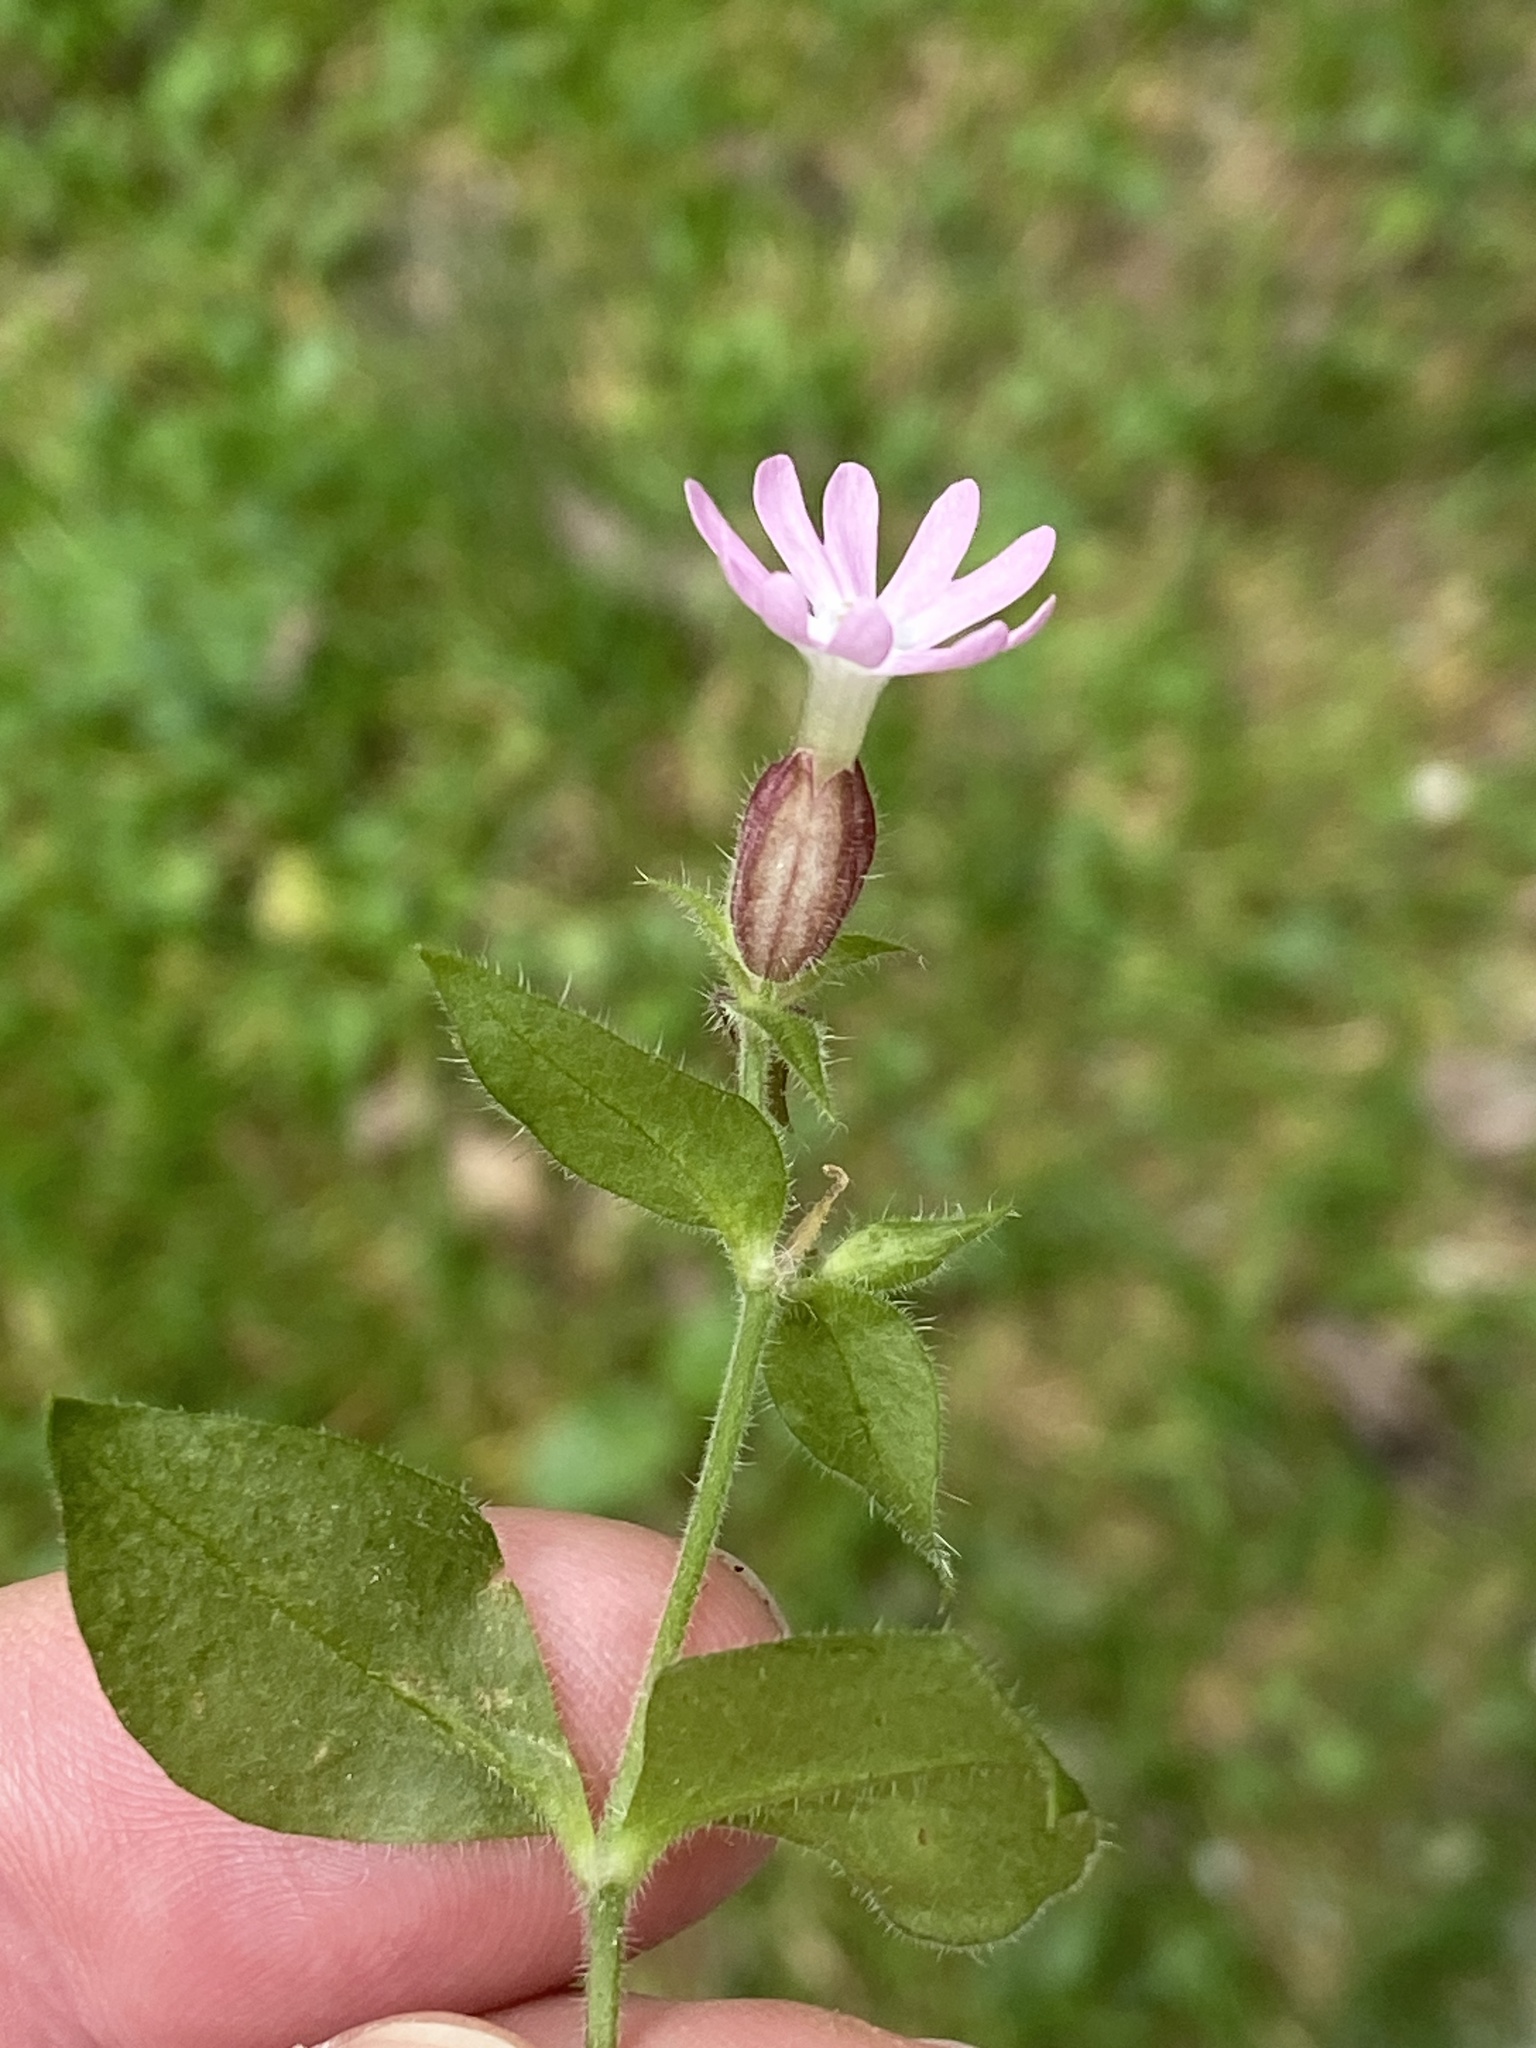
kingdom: Plantae
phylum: Tracheophyta
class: Magnoliopsida
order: Caryophyllales
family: Caryophyllaceae
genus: Silene
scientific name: Silene dioica
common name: Red campion
